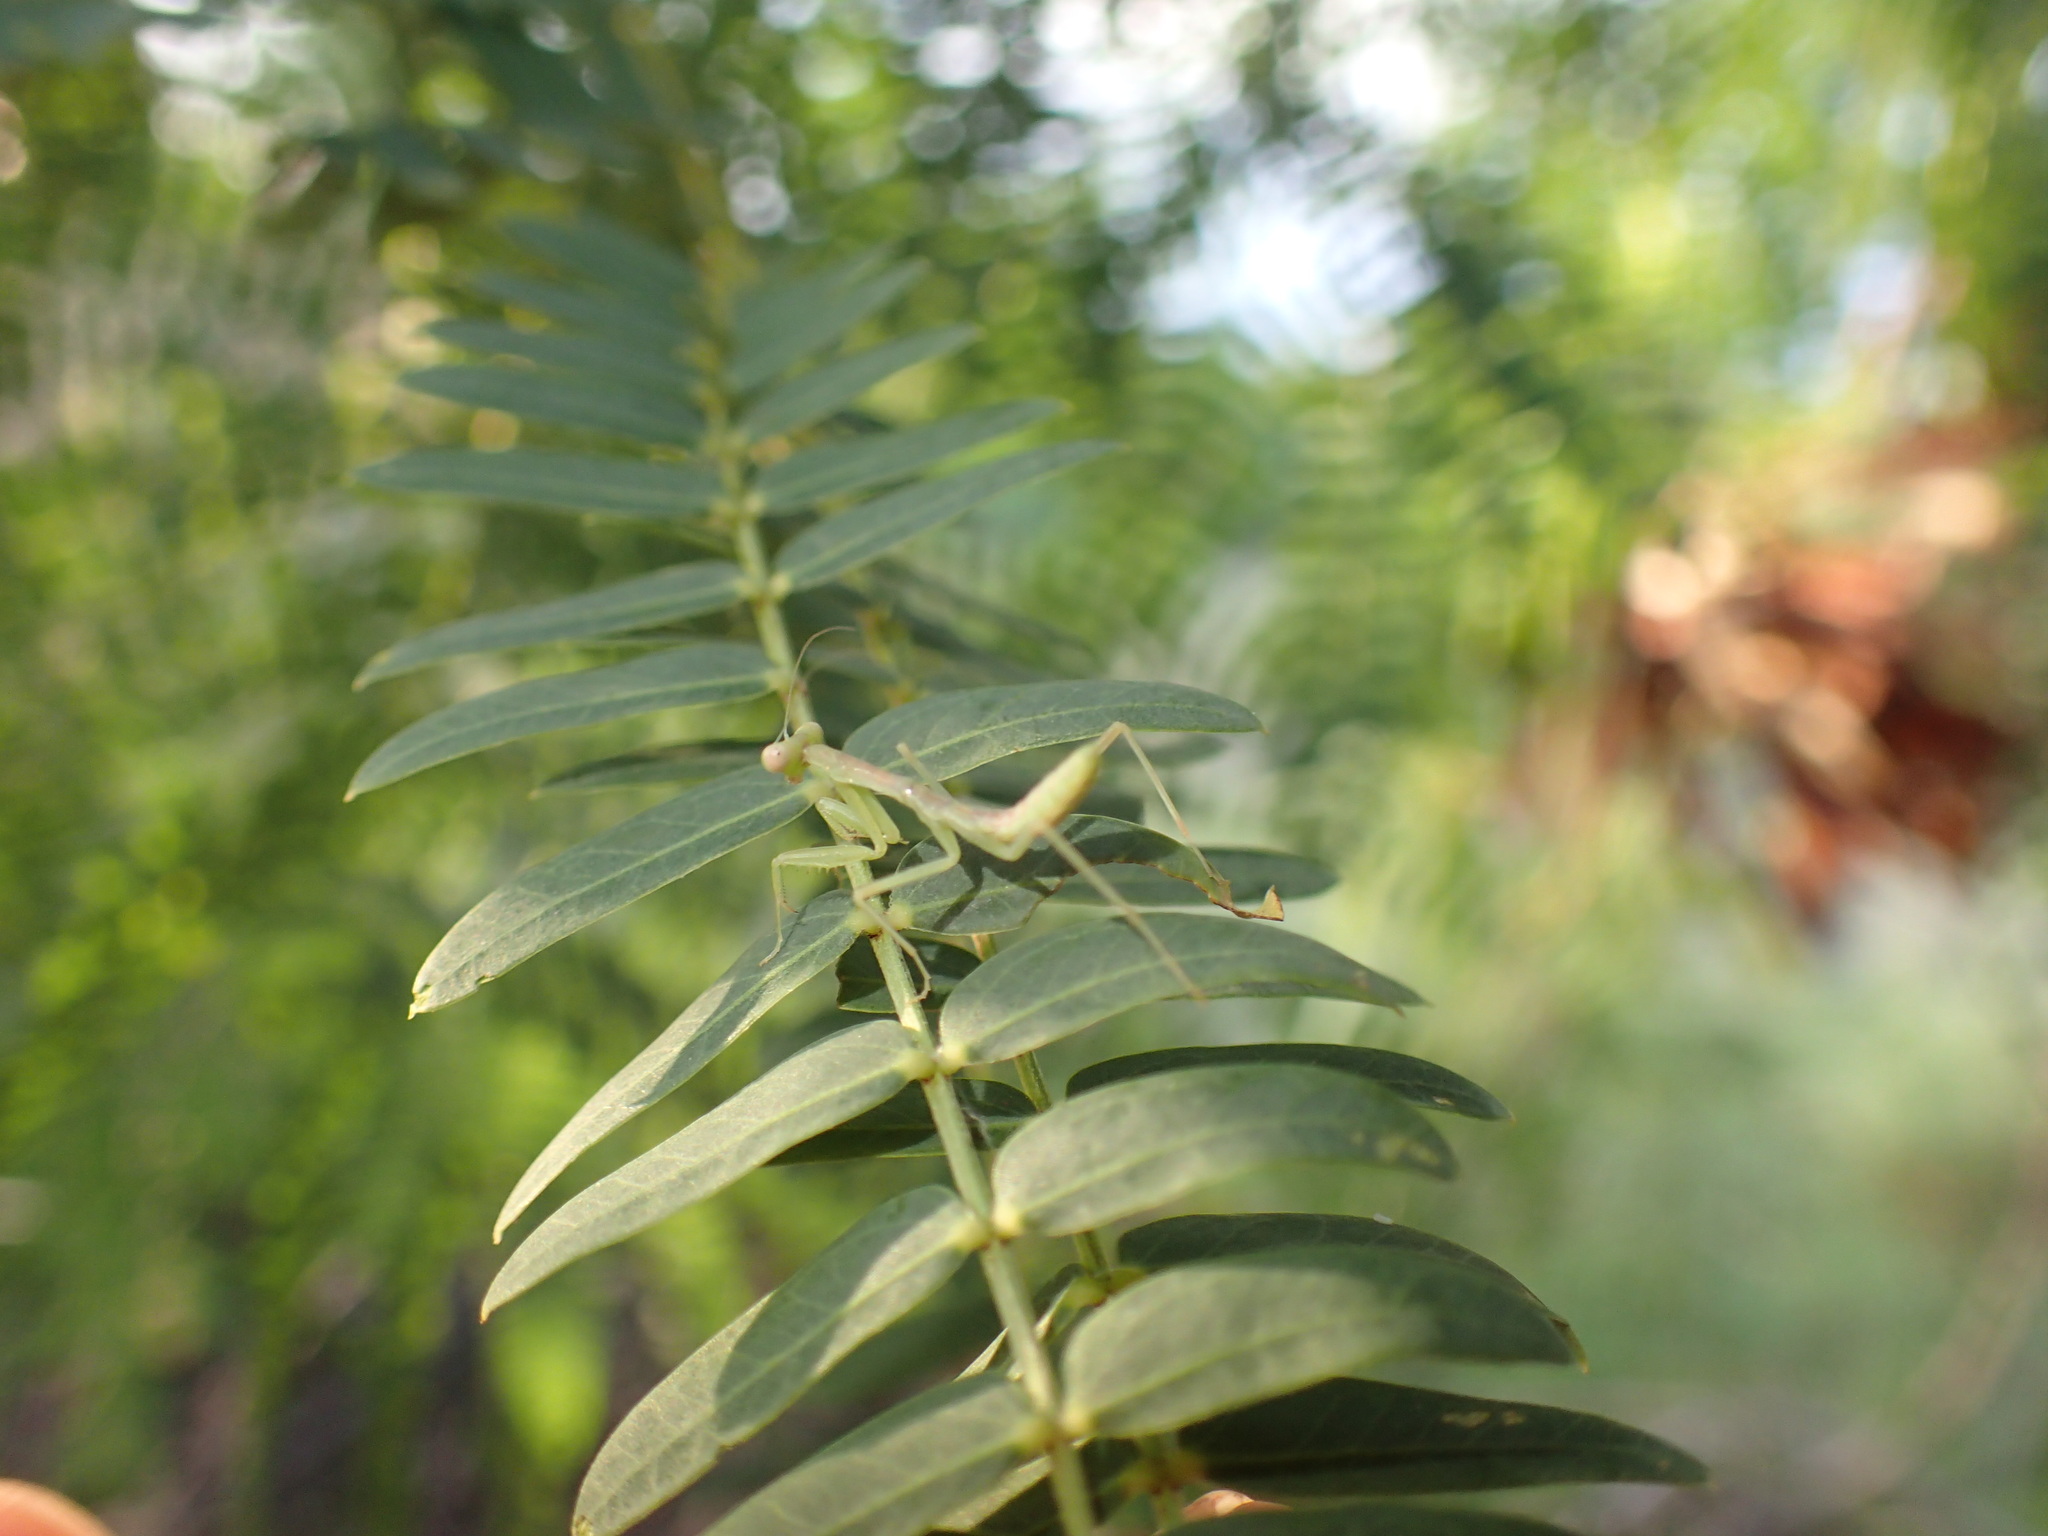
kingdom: Animalia
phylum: Arthropoda
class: Insecta
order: Mantodea
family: Mantidae
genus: Hierodula
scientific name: Hierodula patellifera
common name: Asian mantis
